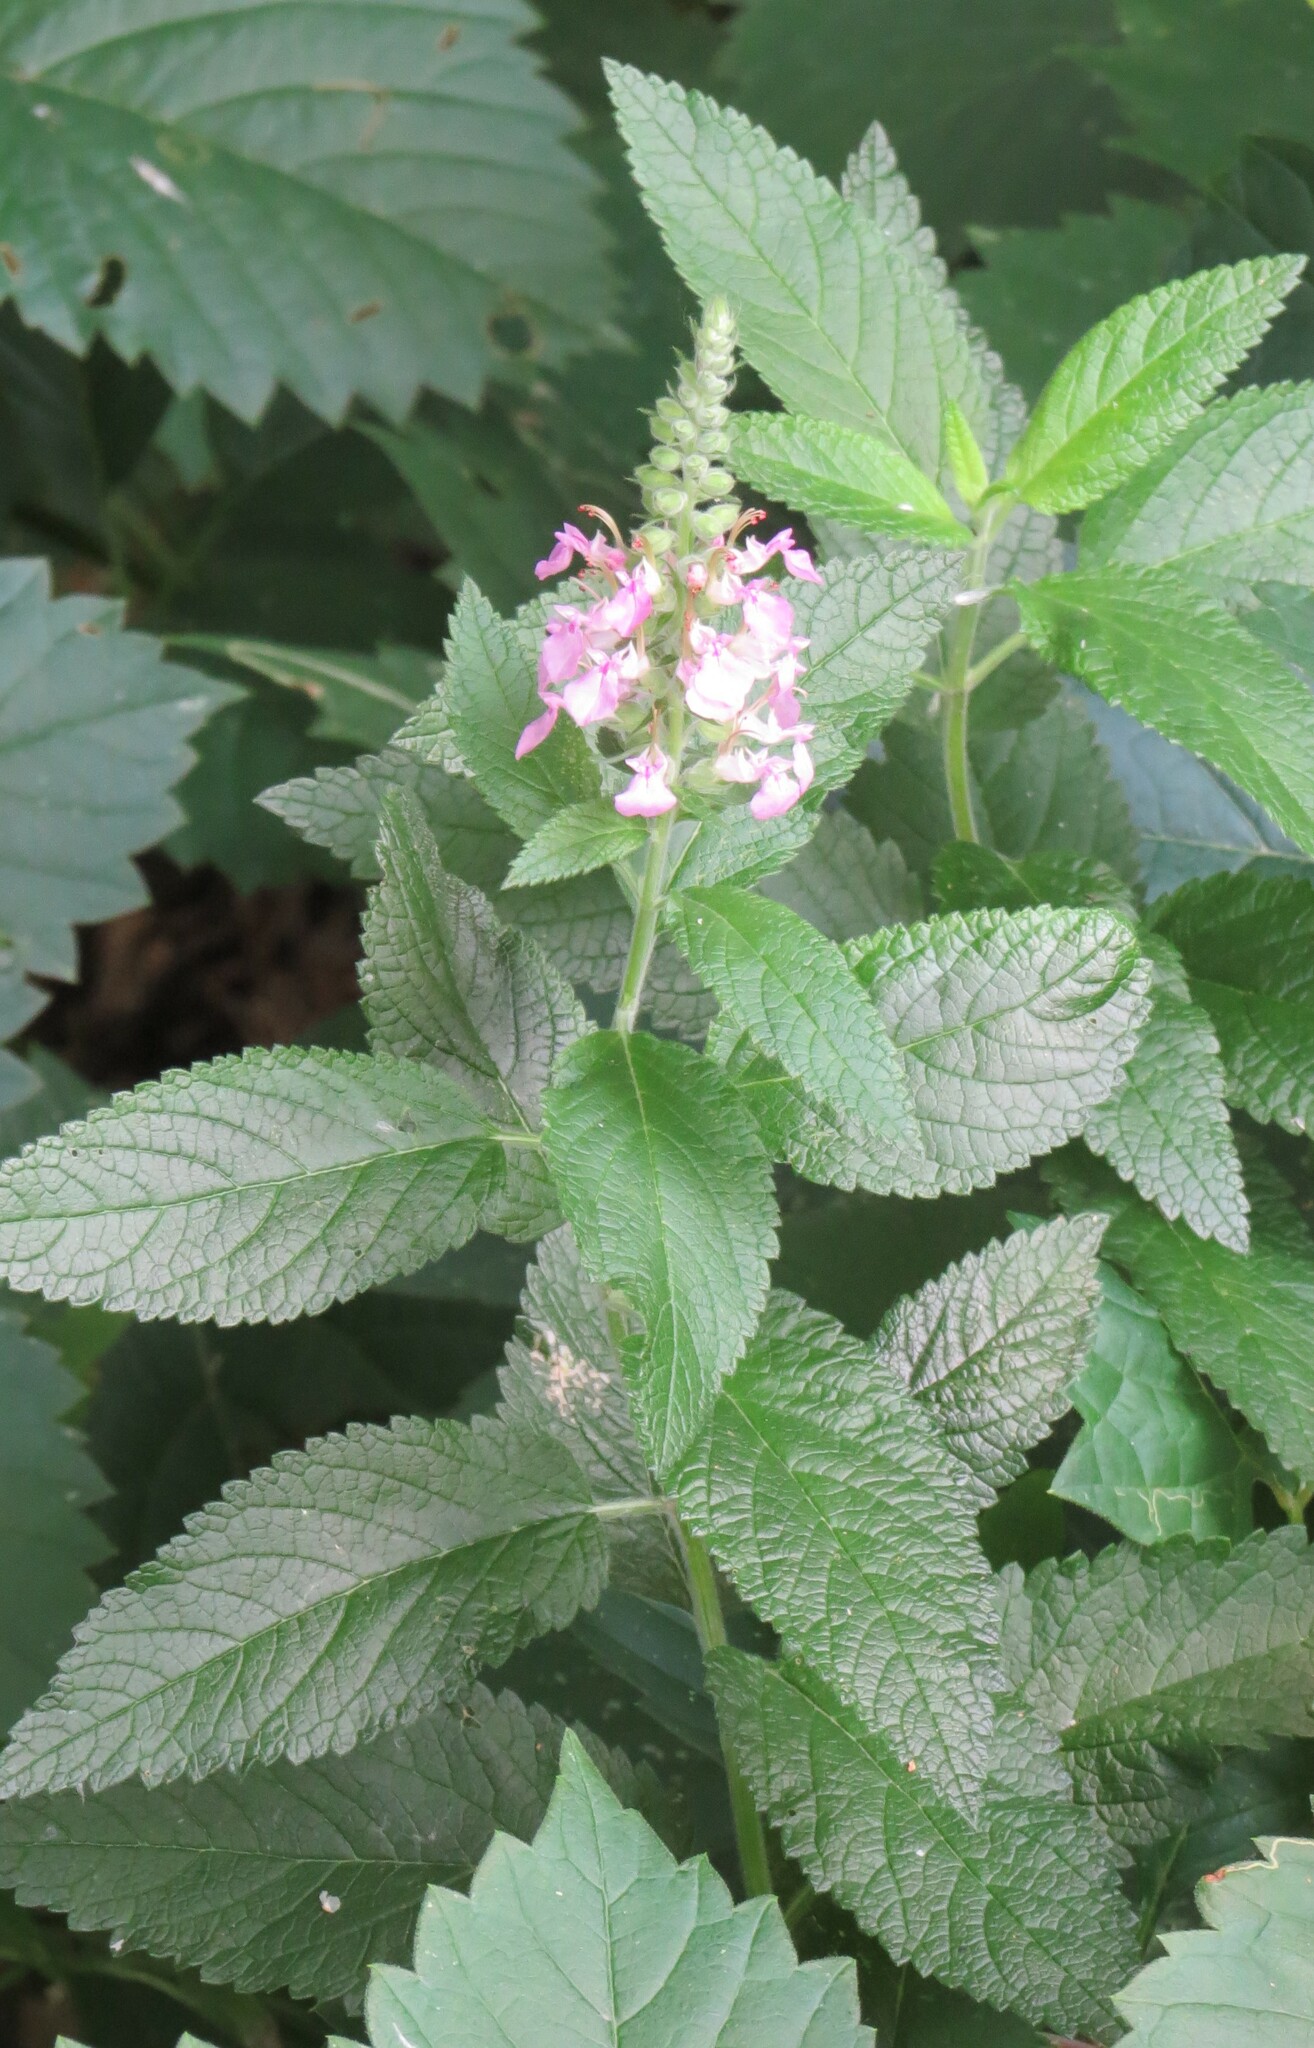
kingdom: Plantae
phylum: Tracheophyta
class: Magnoliopsida
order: Lamiales
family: Lamiaceae
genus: Teucrium
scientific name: Teucrium canadense
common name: American germander
